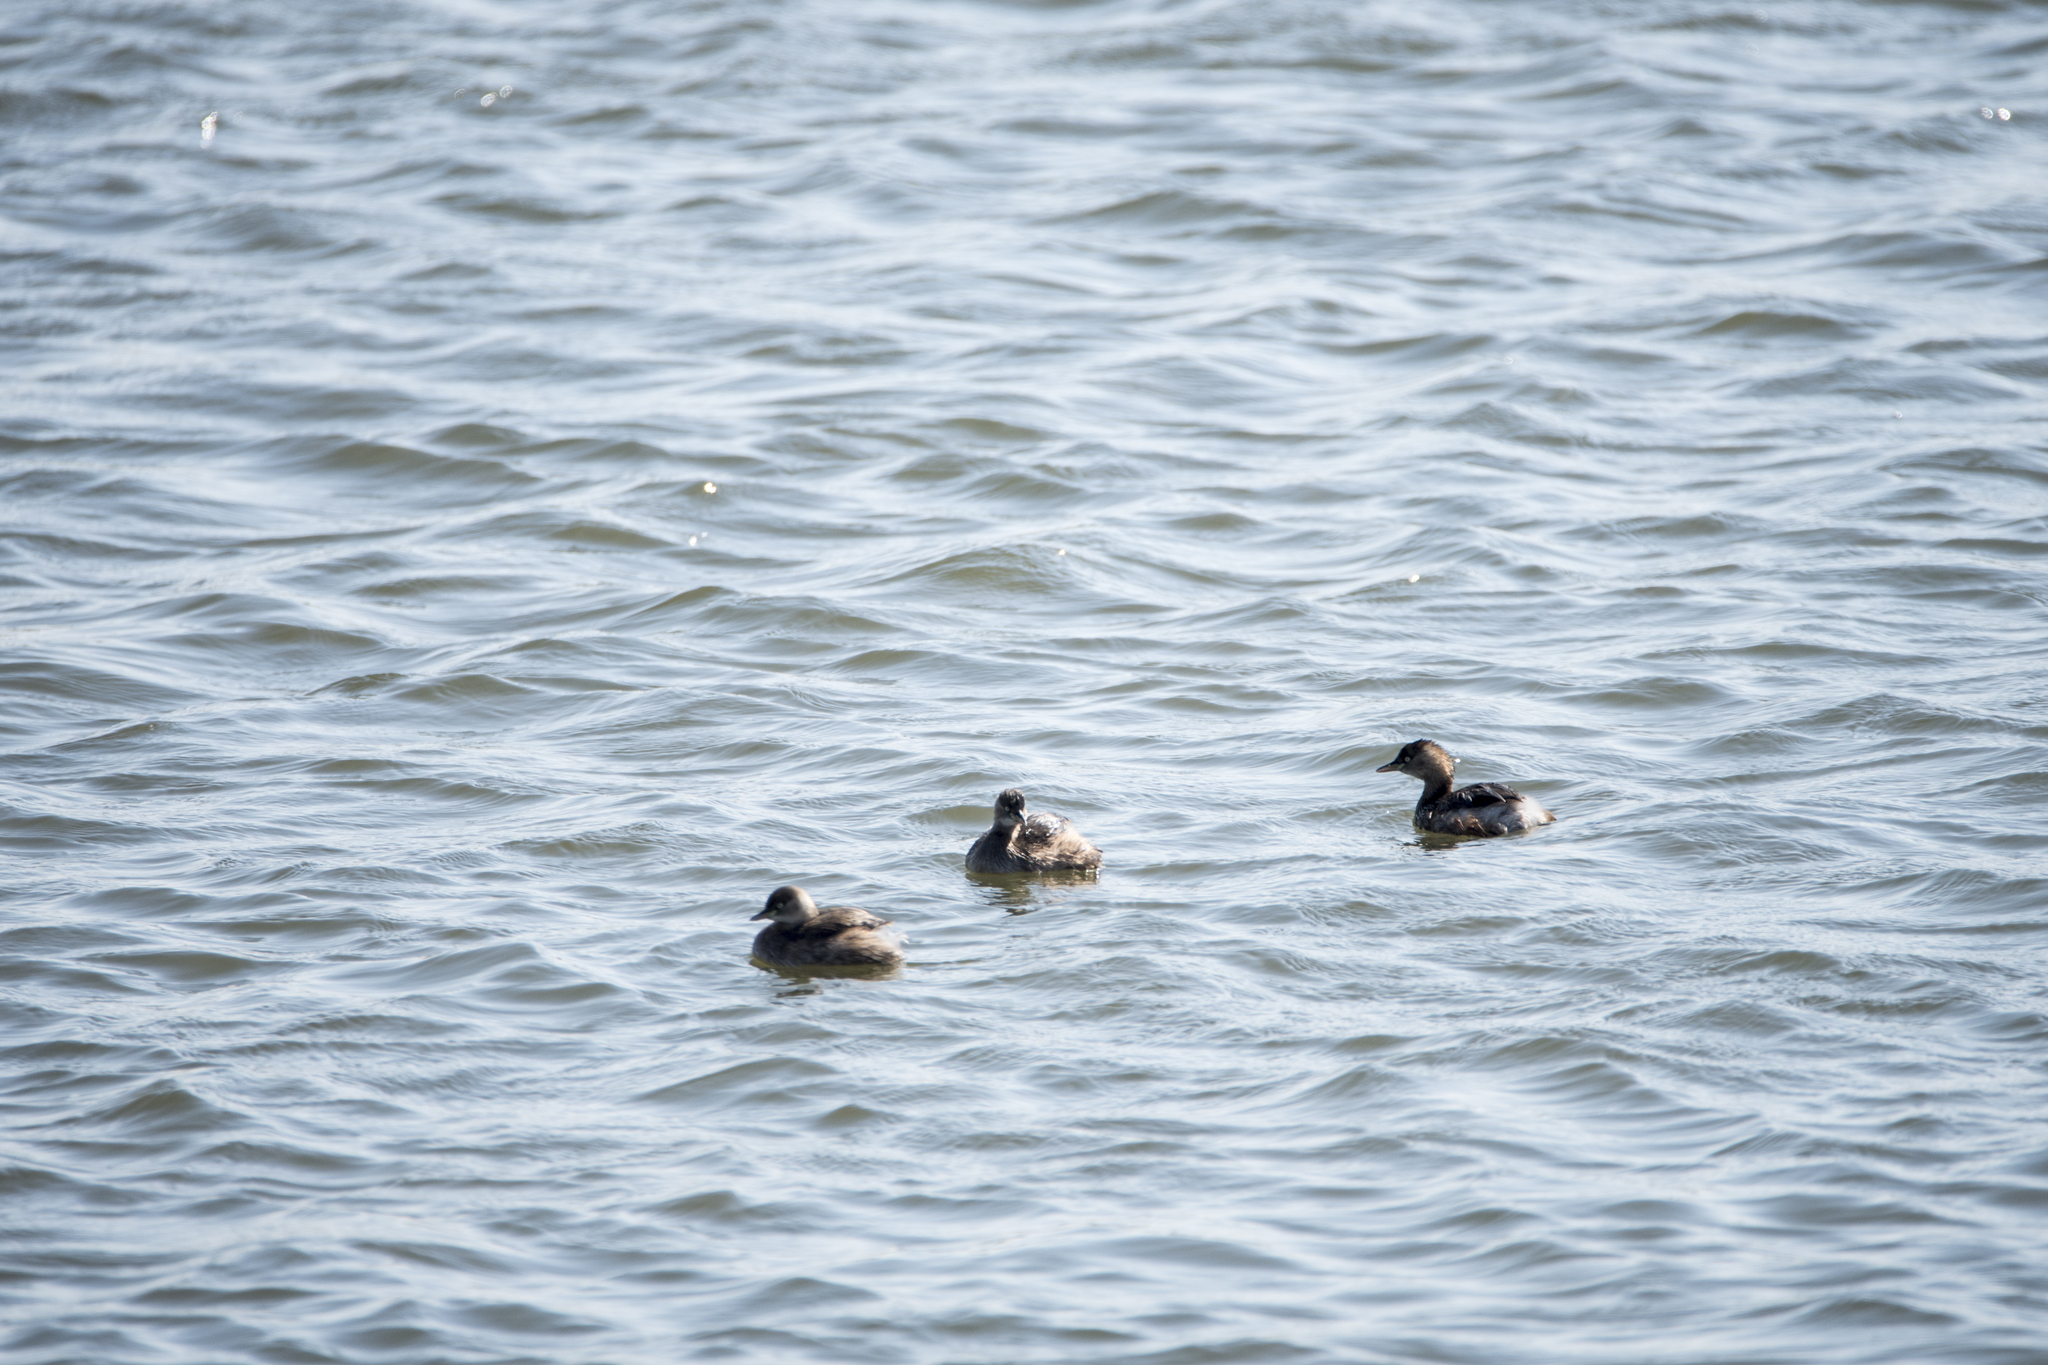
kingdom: Animalia
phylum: Chordata
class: Aves
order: Podicipediformes
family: Podicipedidae
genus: Tachybaptus
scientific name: Tachybaptus ruficollis
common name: Little grebe
